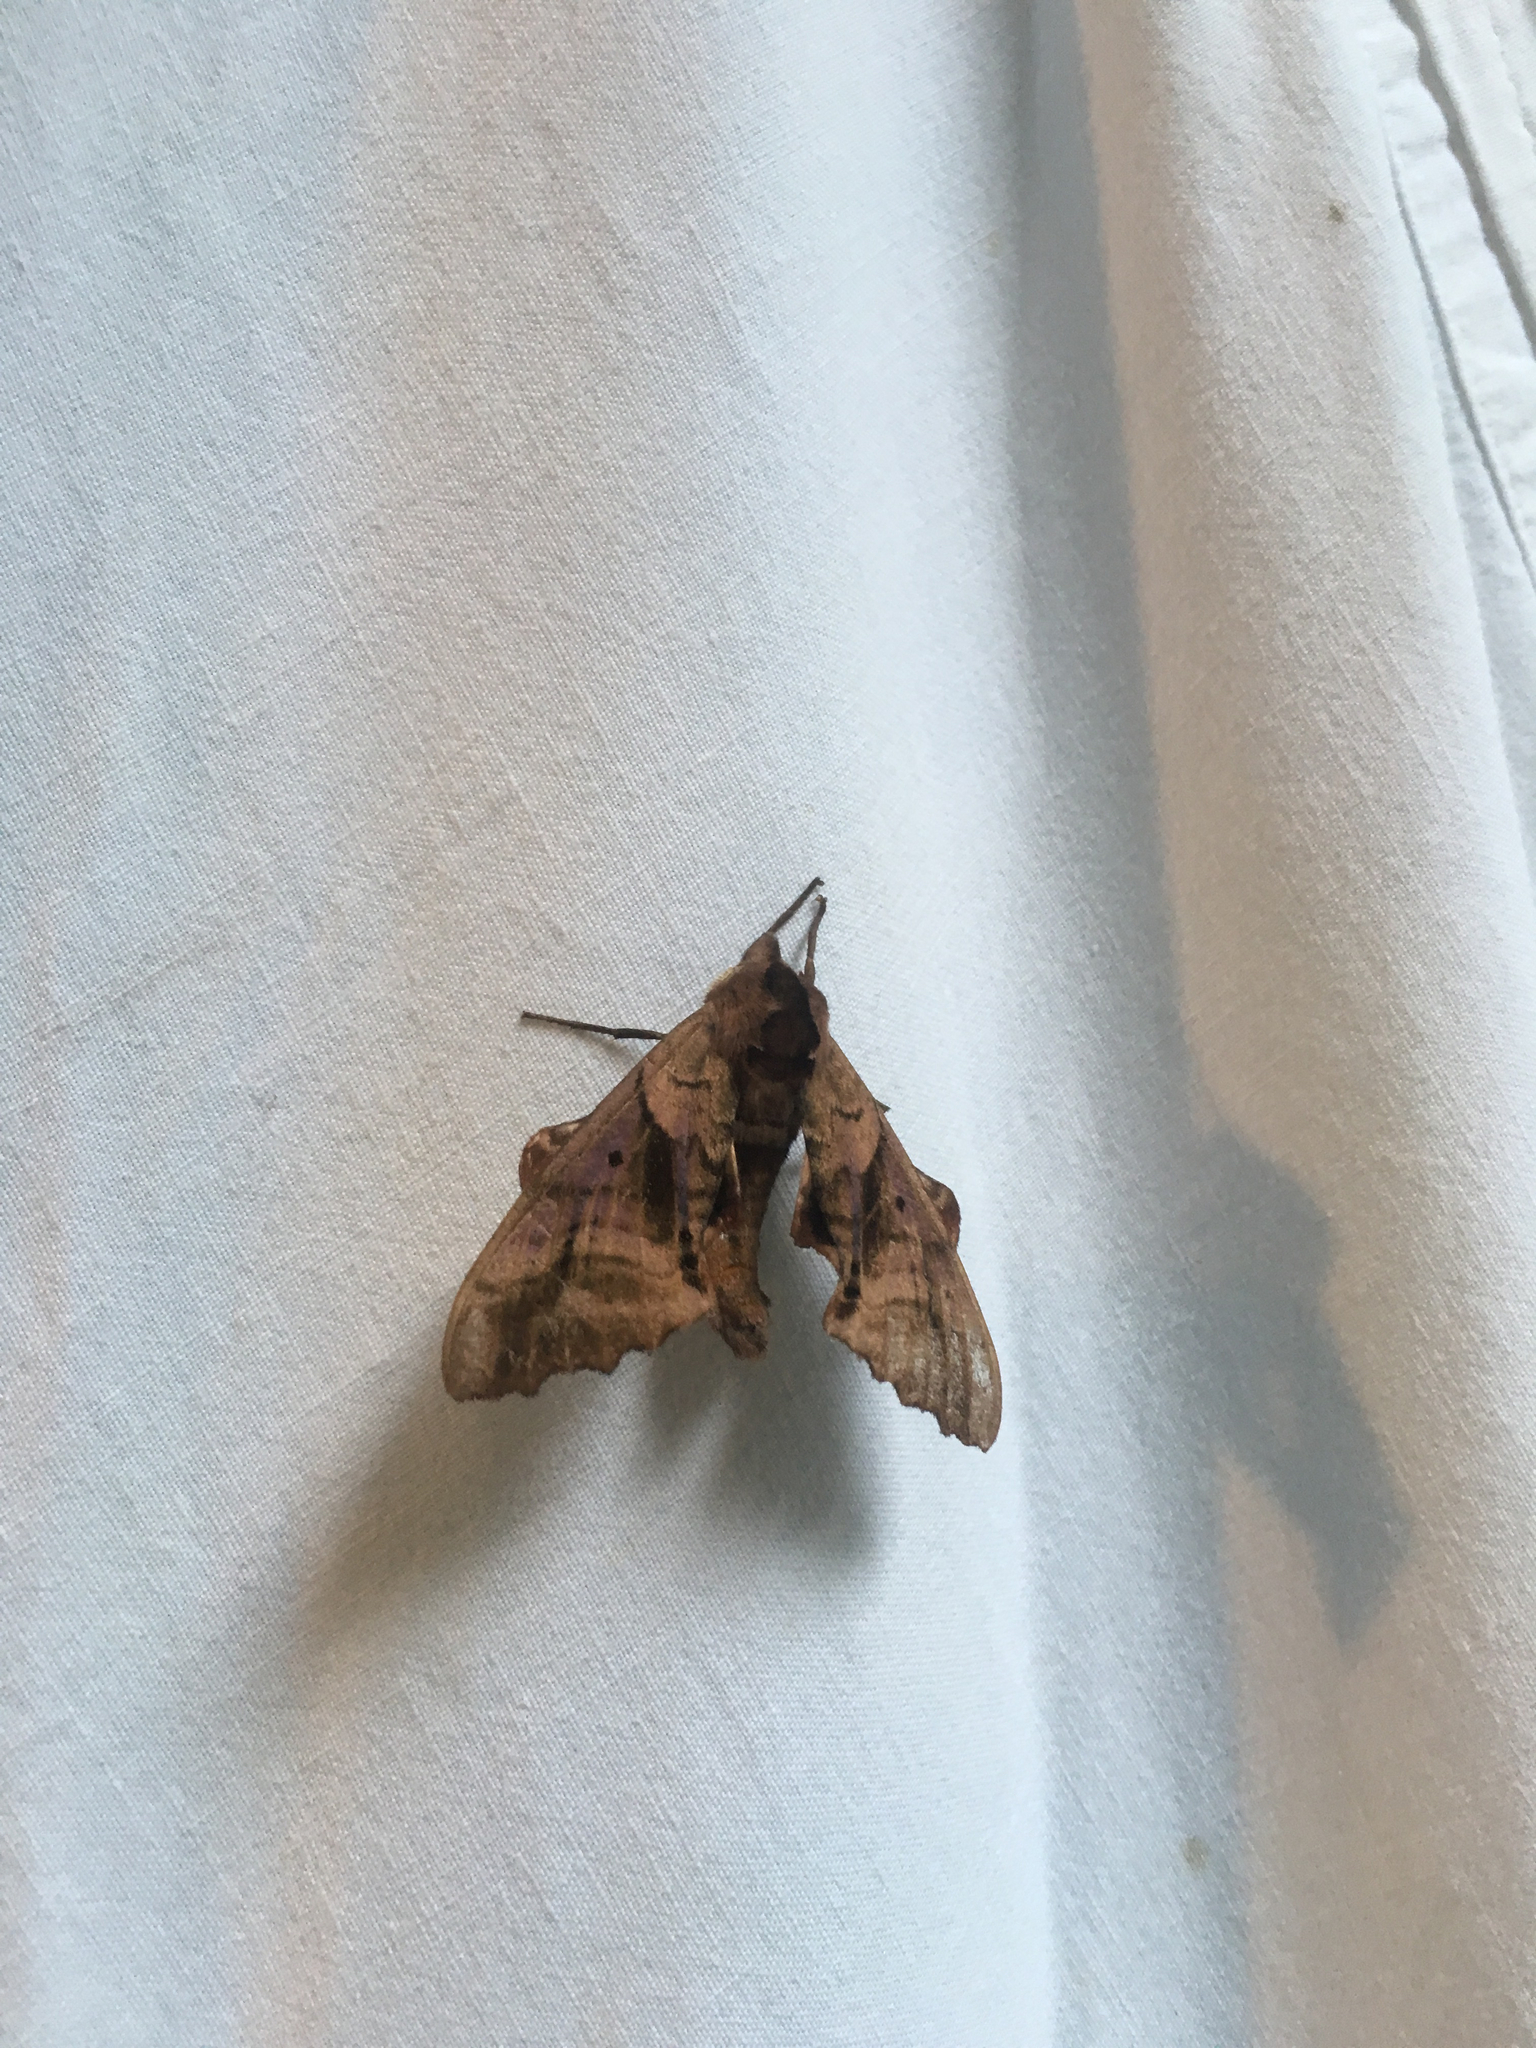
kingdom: Animalia
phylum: Arthropoda
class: Insecta
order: Lepidoptera
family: Sphingidae
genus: Paonias
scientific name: Paonias excaecata
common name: Blind-eyed sphinx
